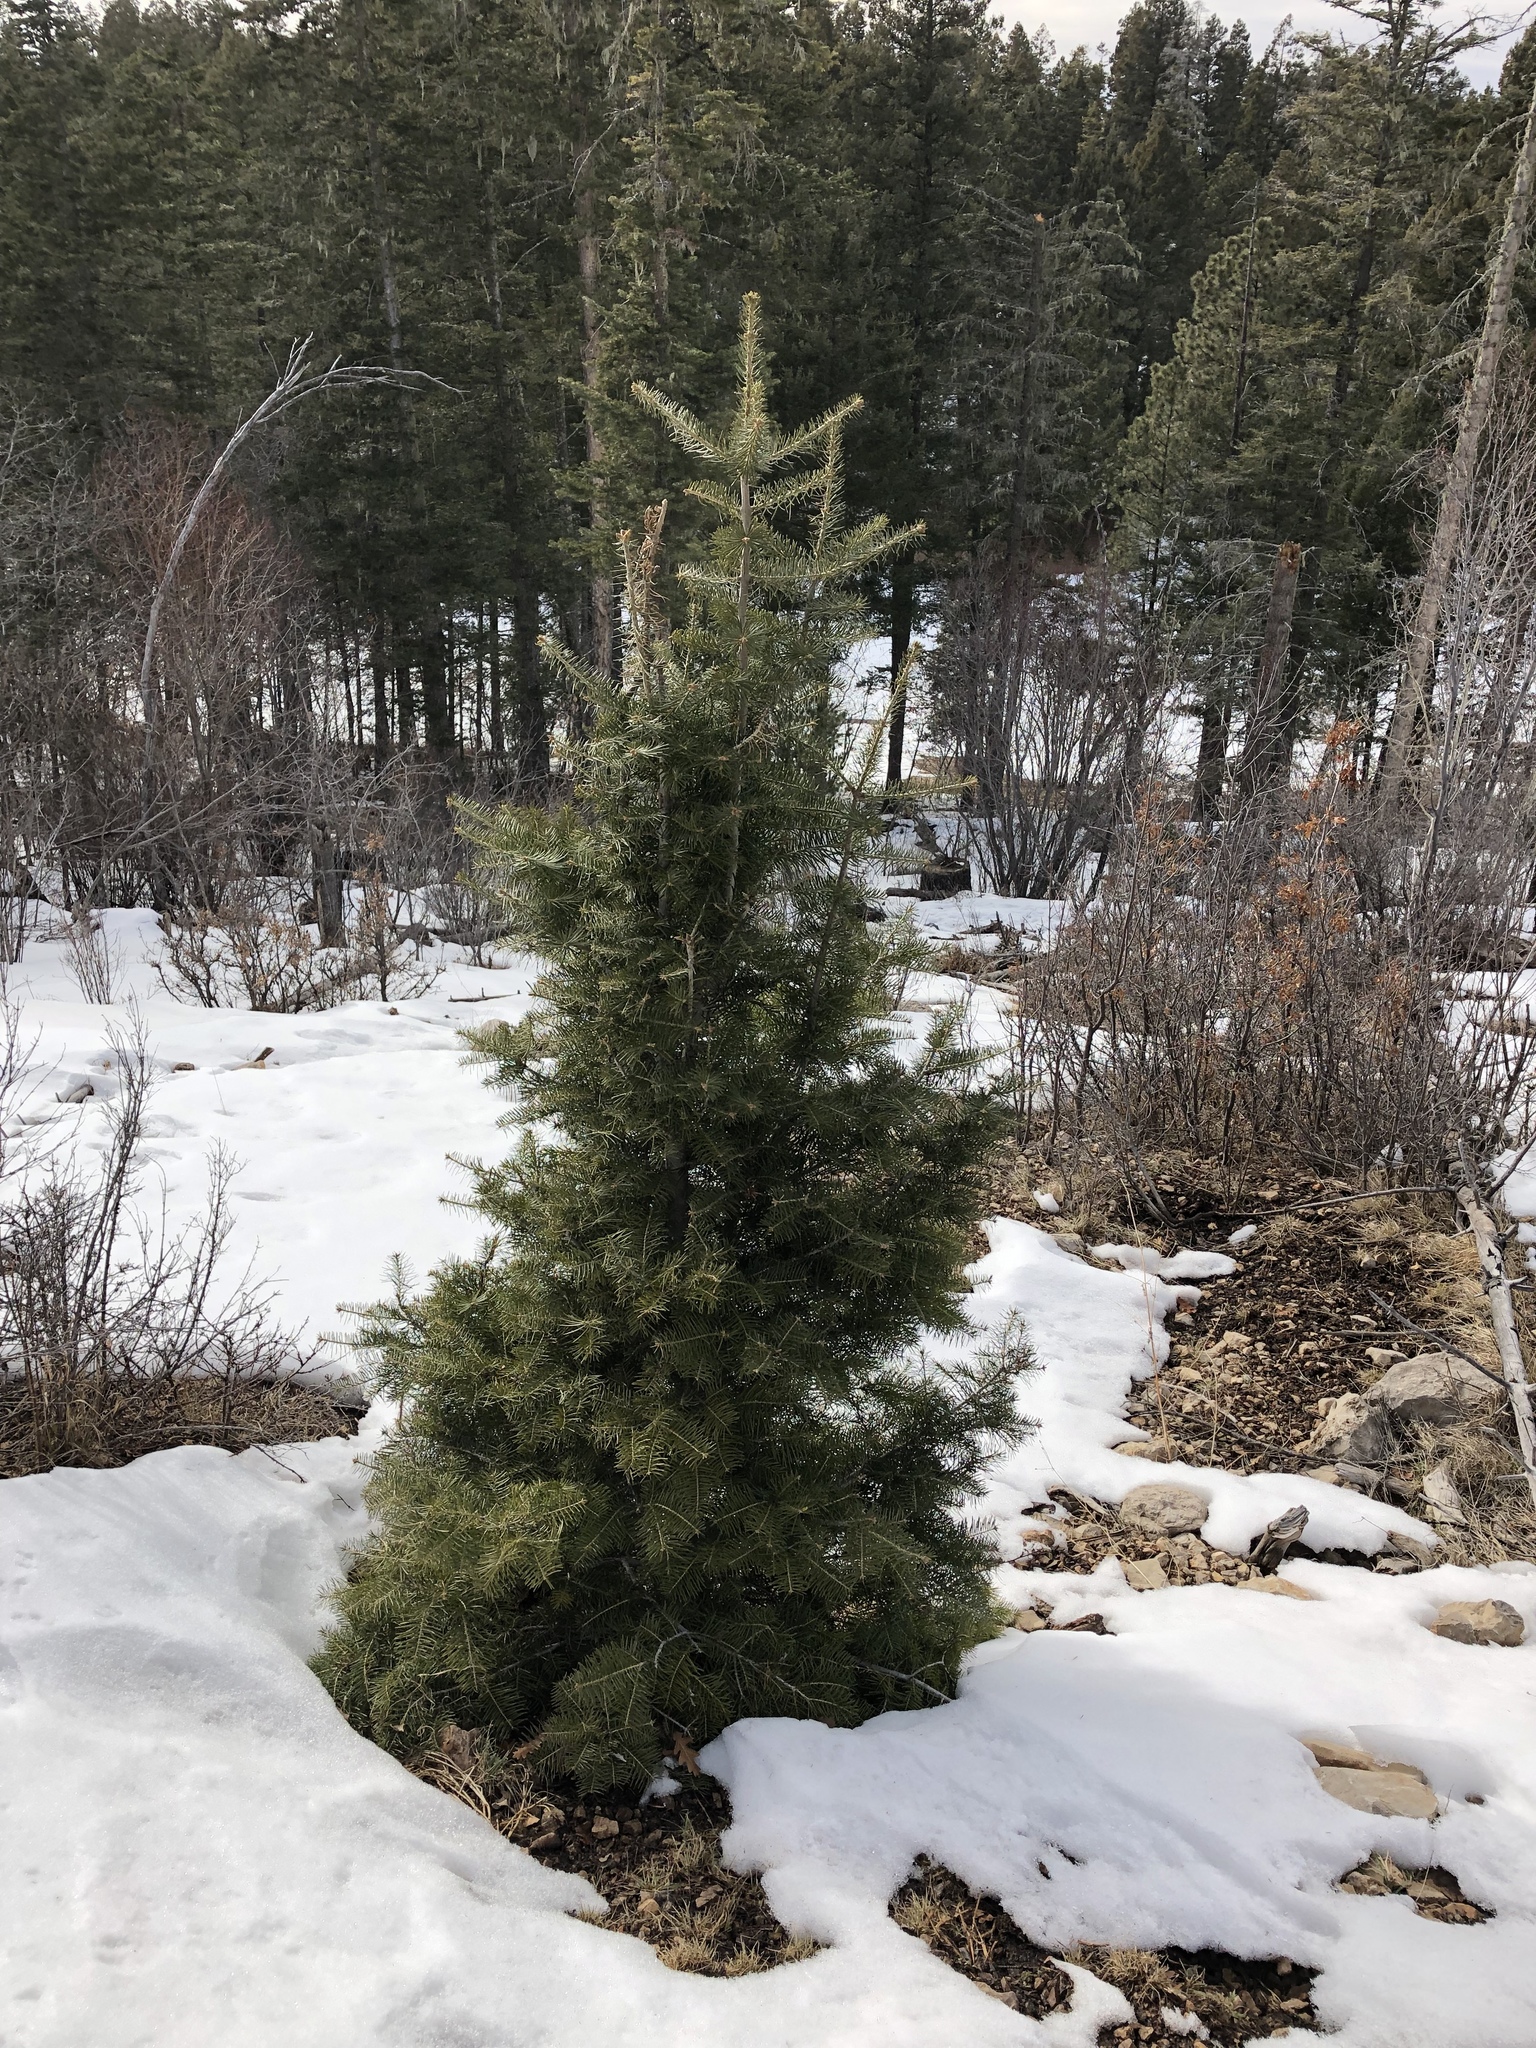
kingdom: Plantae
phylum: Tracheophyta
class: Pinopsida
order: Pinales
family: Pinaceae
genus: Abies
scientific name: Abies concolor
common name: Colorado fir
